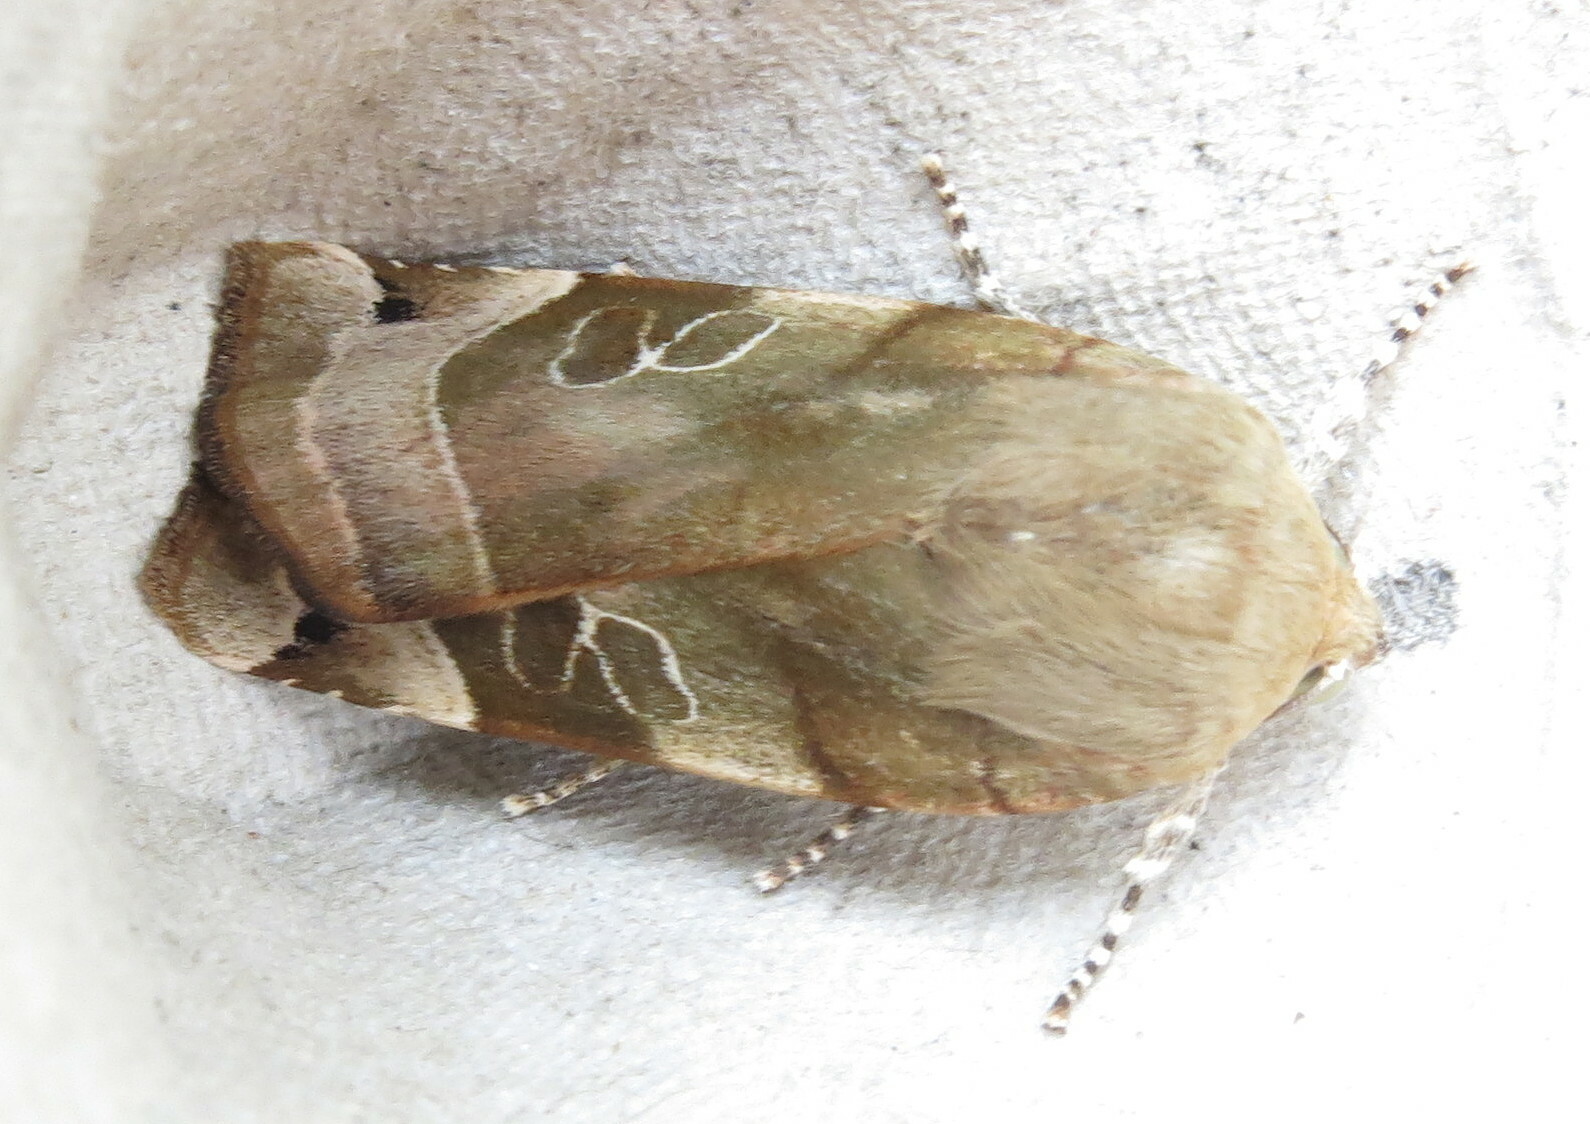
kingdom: Animalia
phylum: Arthropoda
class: Insecta
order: Lepidoptera
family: Noctuidae
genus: Noctua
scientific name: Noctua fimbriata
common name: Broad-bordered yellow underwing
